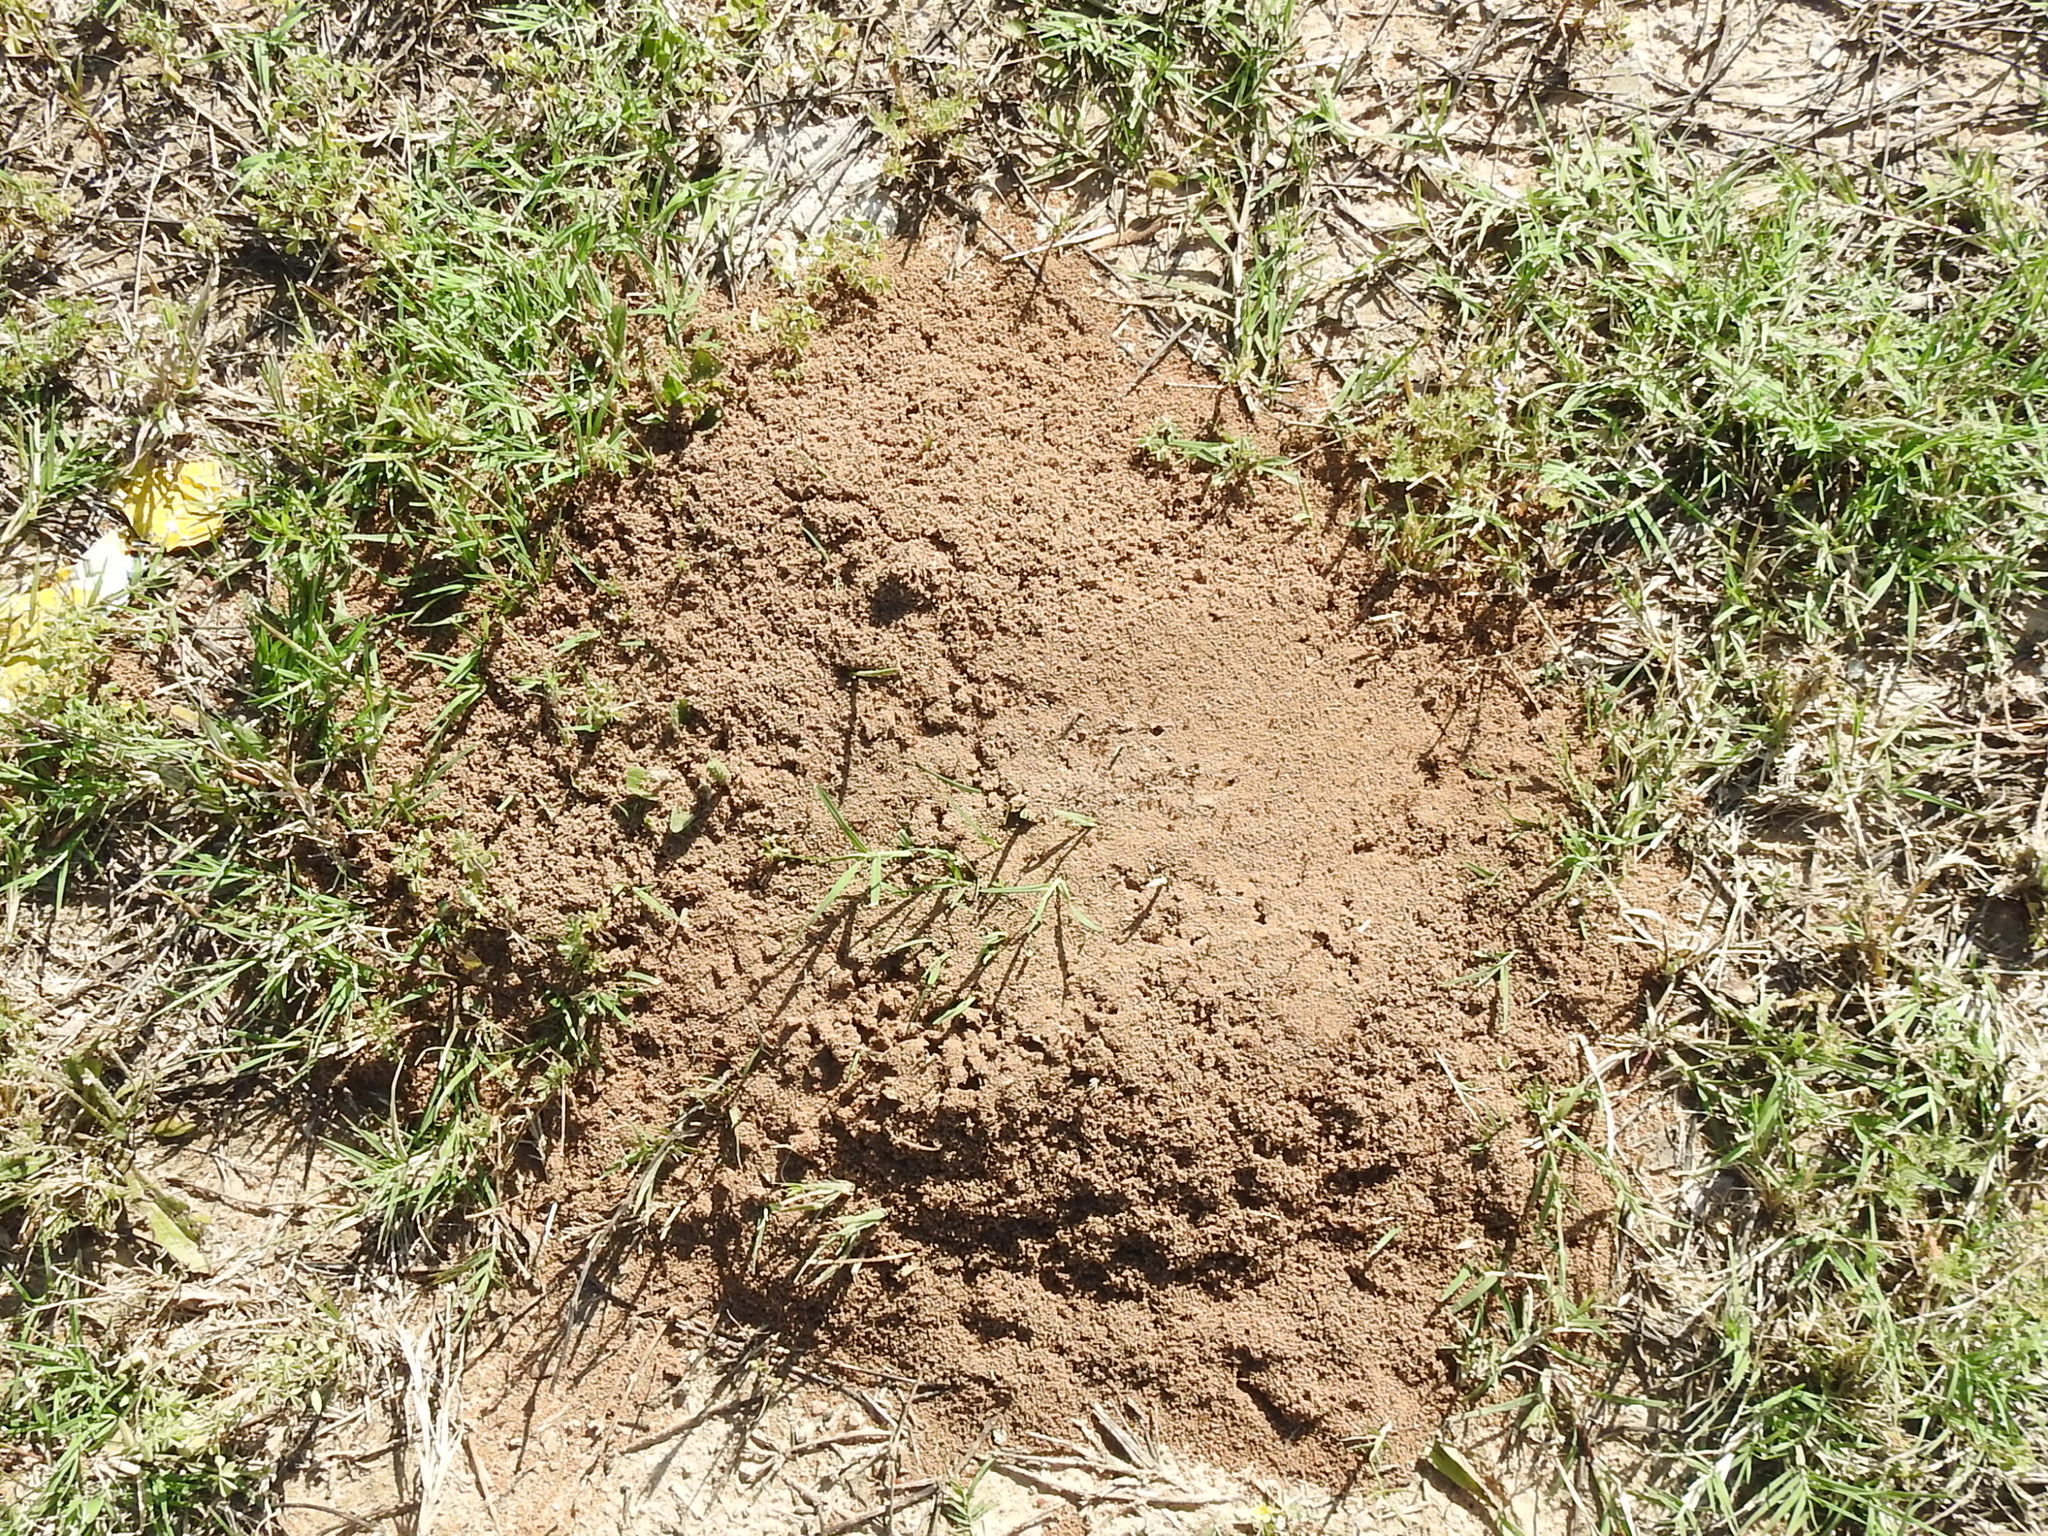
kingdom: Animalia
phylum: Arthropoda
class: Insecta
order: Hymenoptera
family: Formicidae
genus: Solenopsis
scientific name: Solenopsis invicta
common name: Red imported fire ant
